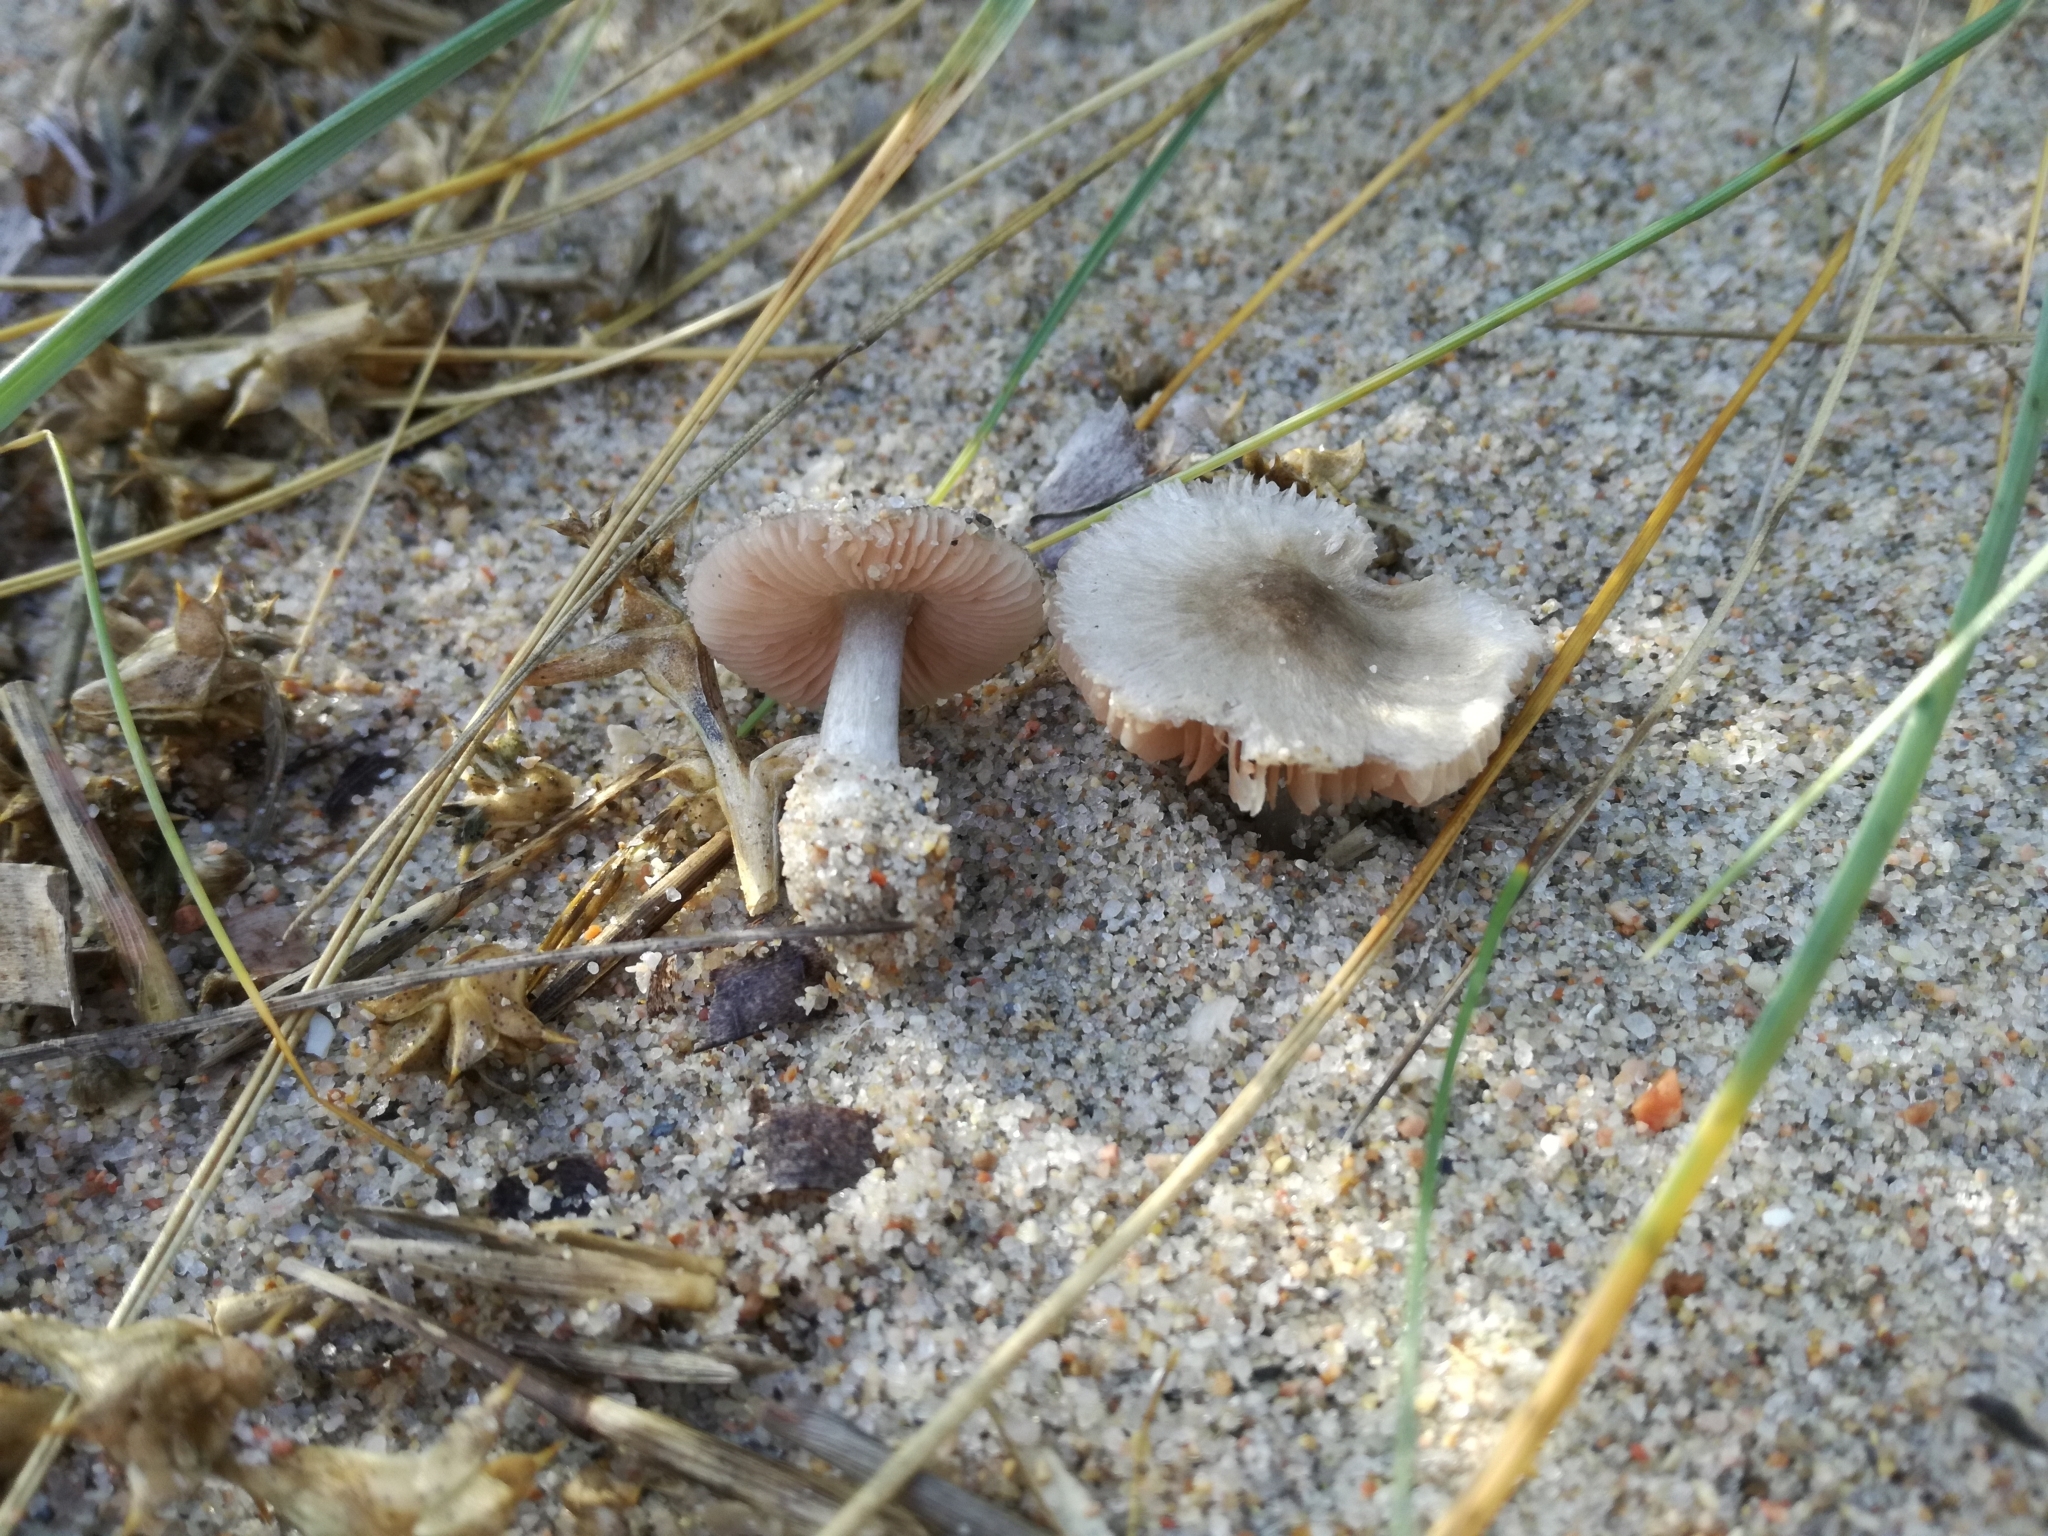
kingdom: Fungi
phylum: Basidiomycota
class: Agaricomycetes
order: Agaricales
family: Pluteaceae
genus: Volvariella
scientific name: Volvariella dunensis
